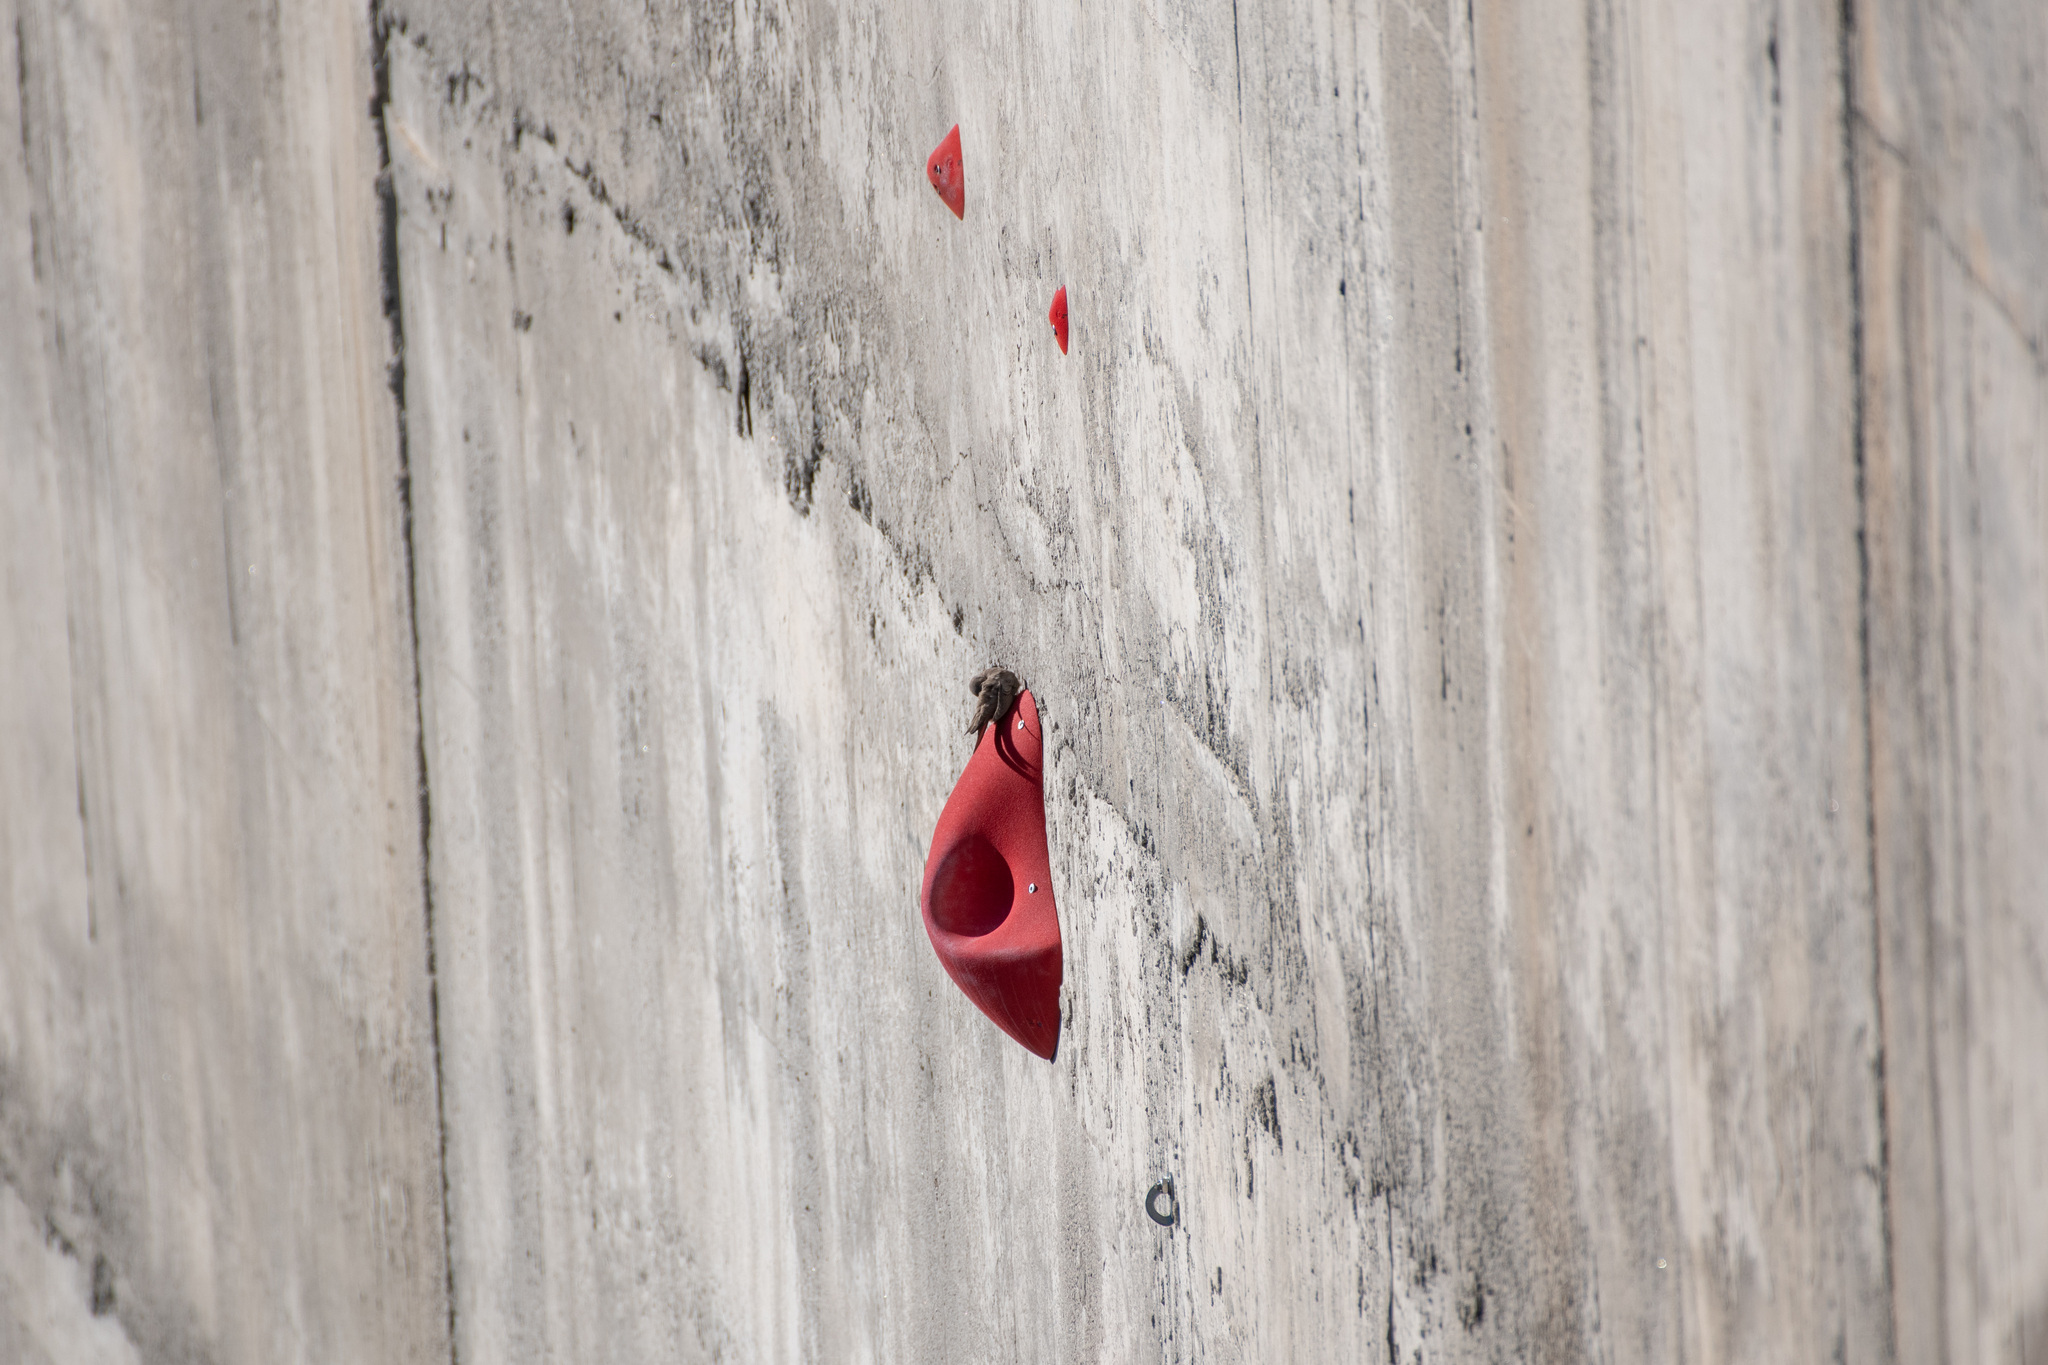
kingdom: Animalia
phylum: Chordata
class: Aves
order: Passeriformes
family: Hirundinidae
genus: Ptyonoprogne
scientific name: Ptyonoprogne rupestris
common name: Eurasian crag martin
